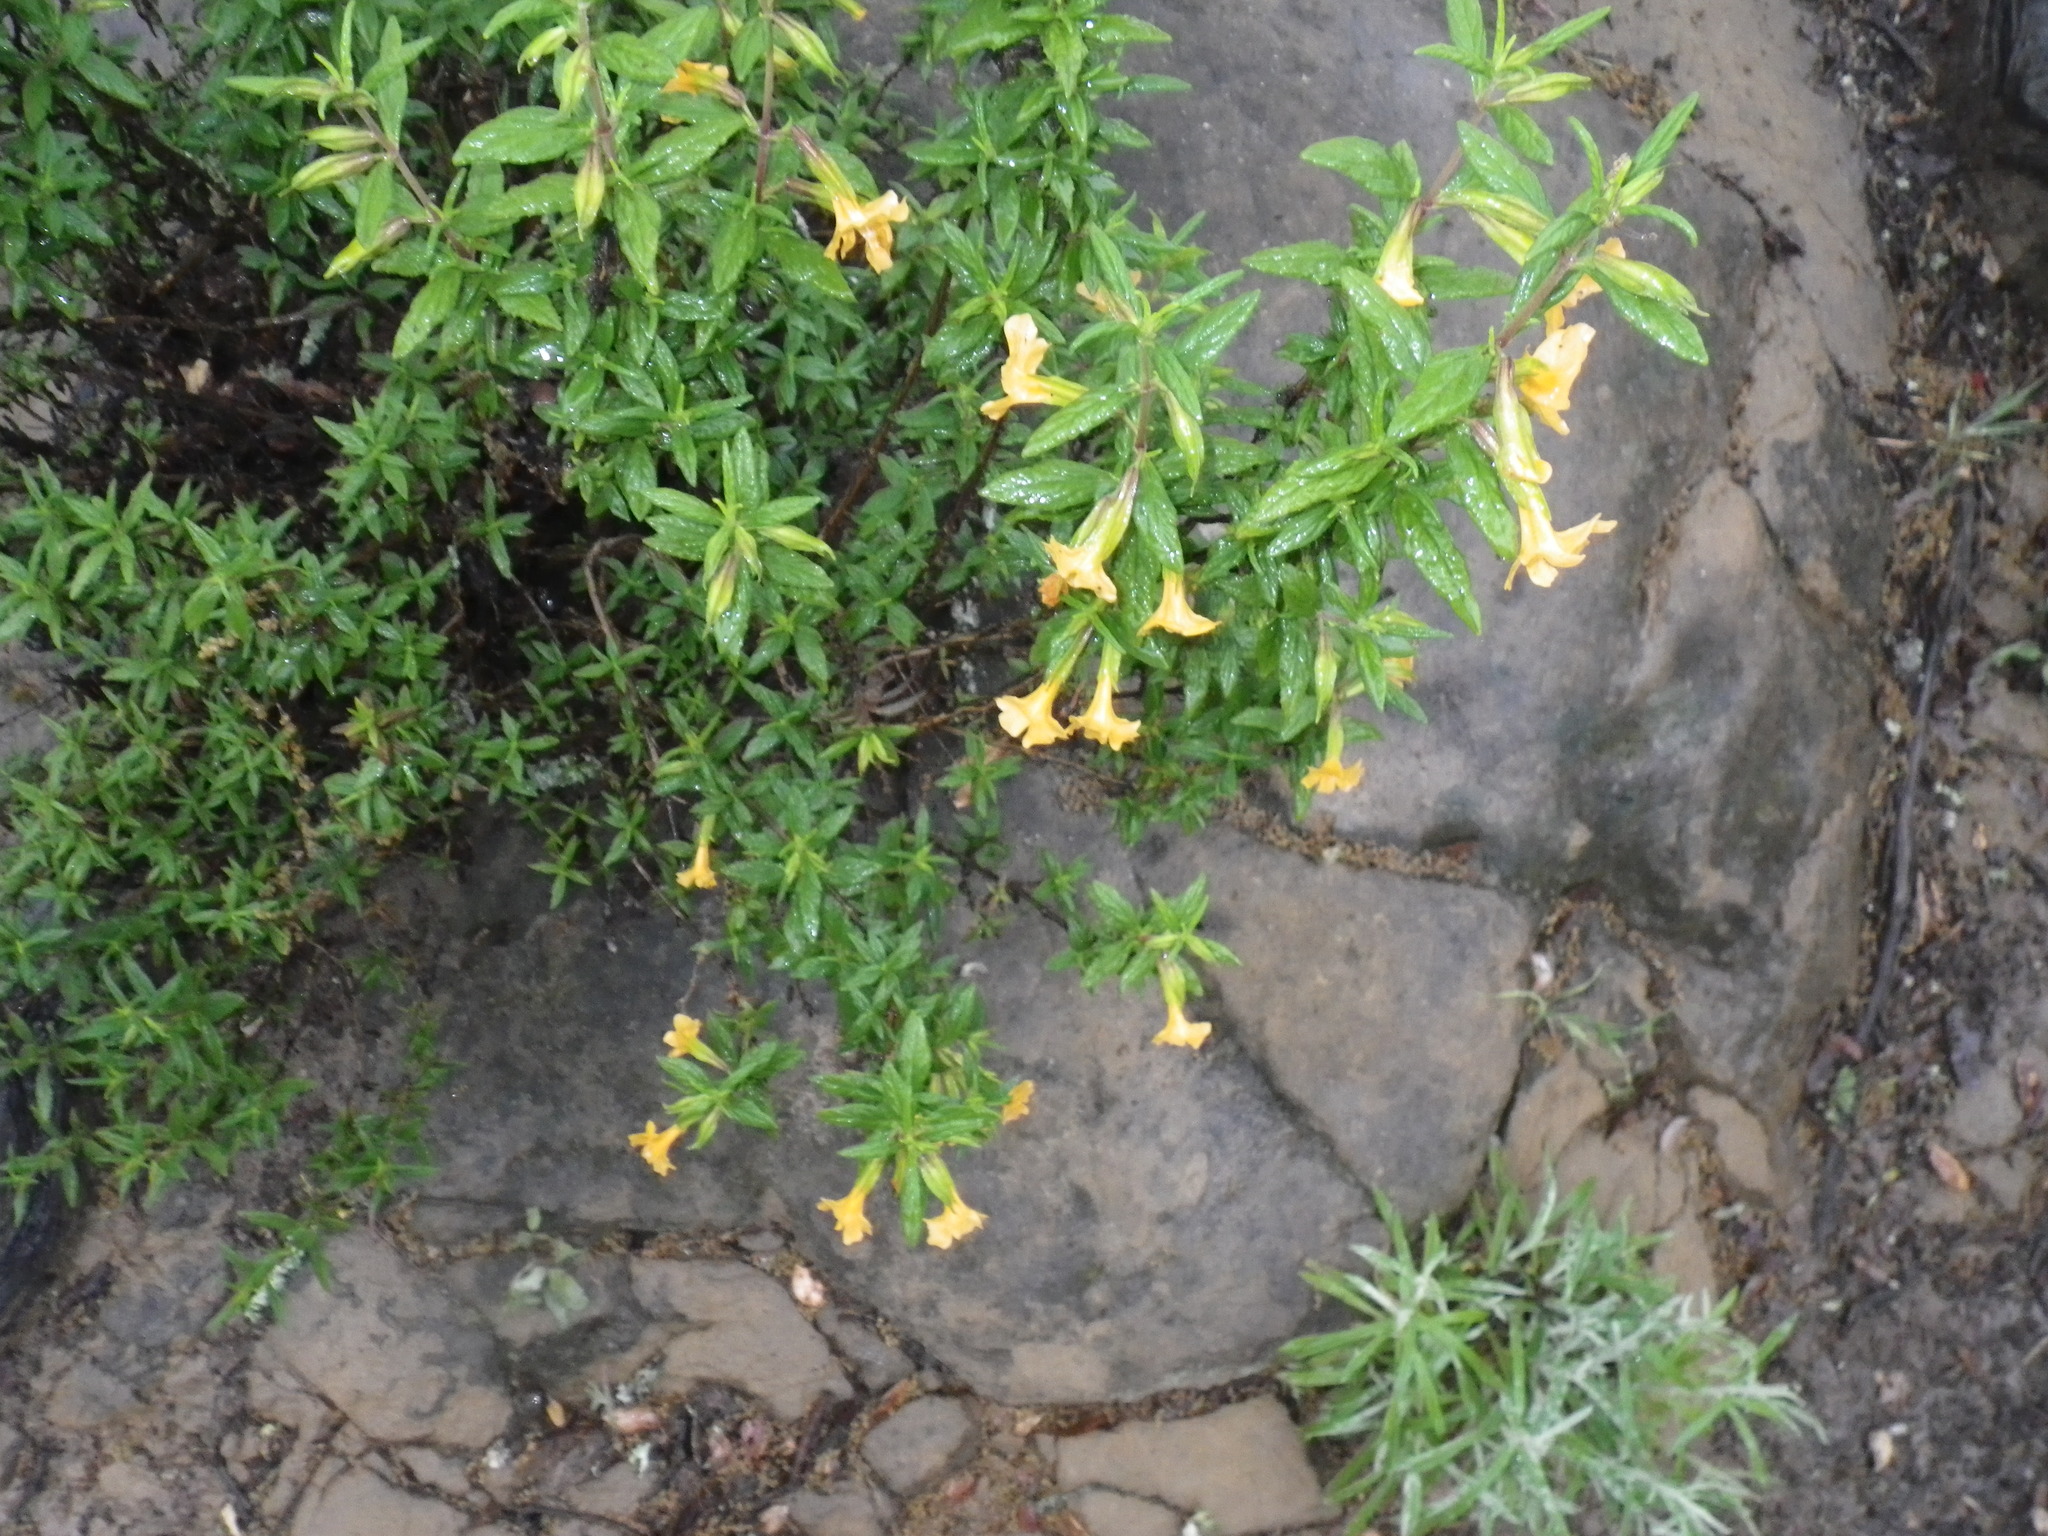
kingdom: Plantae
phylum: Tracheophyta
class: Magnoliopsida
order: Lamiales
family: Phrymaceae
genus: Diplacus
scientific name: Diplacus aurantiacus
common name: Bush monkey-flower
